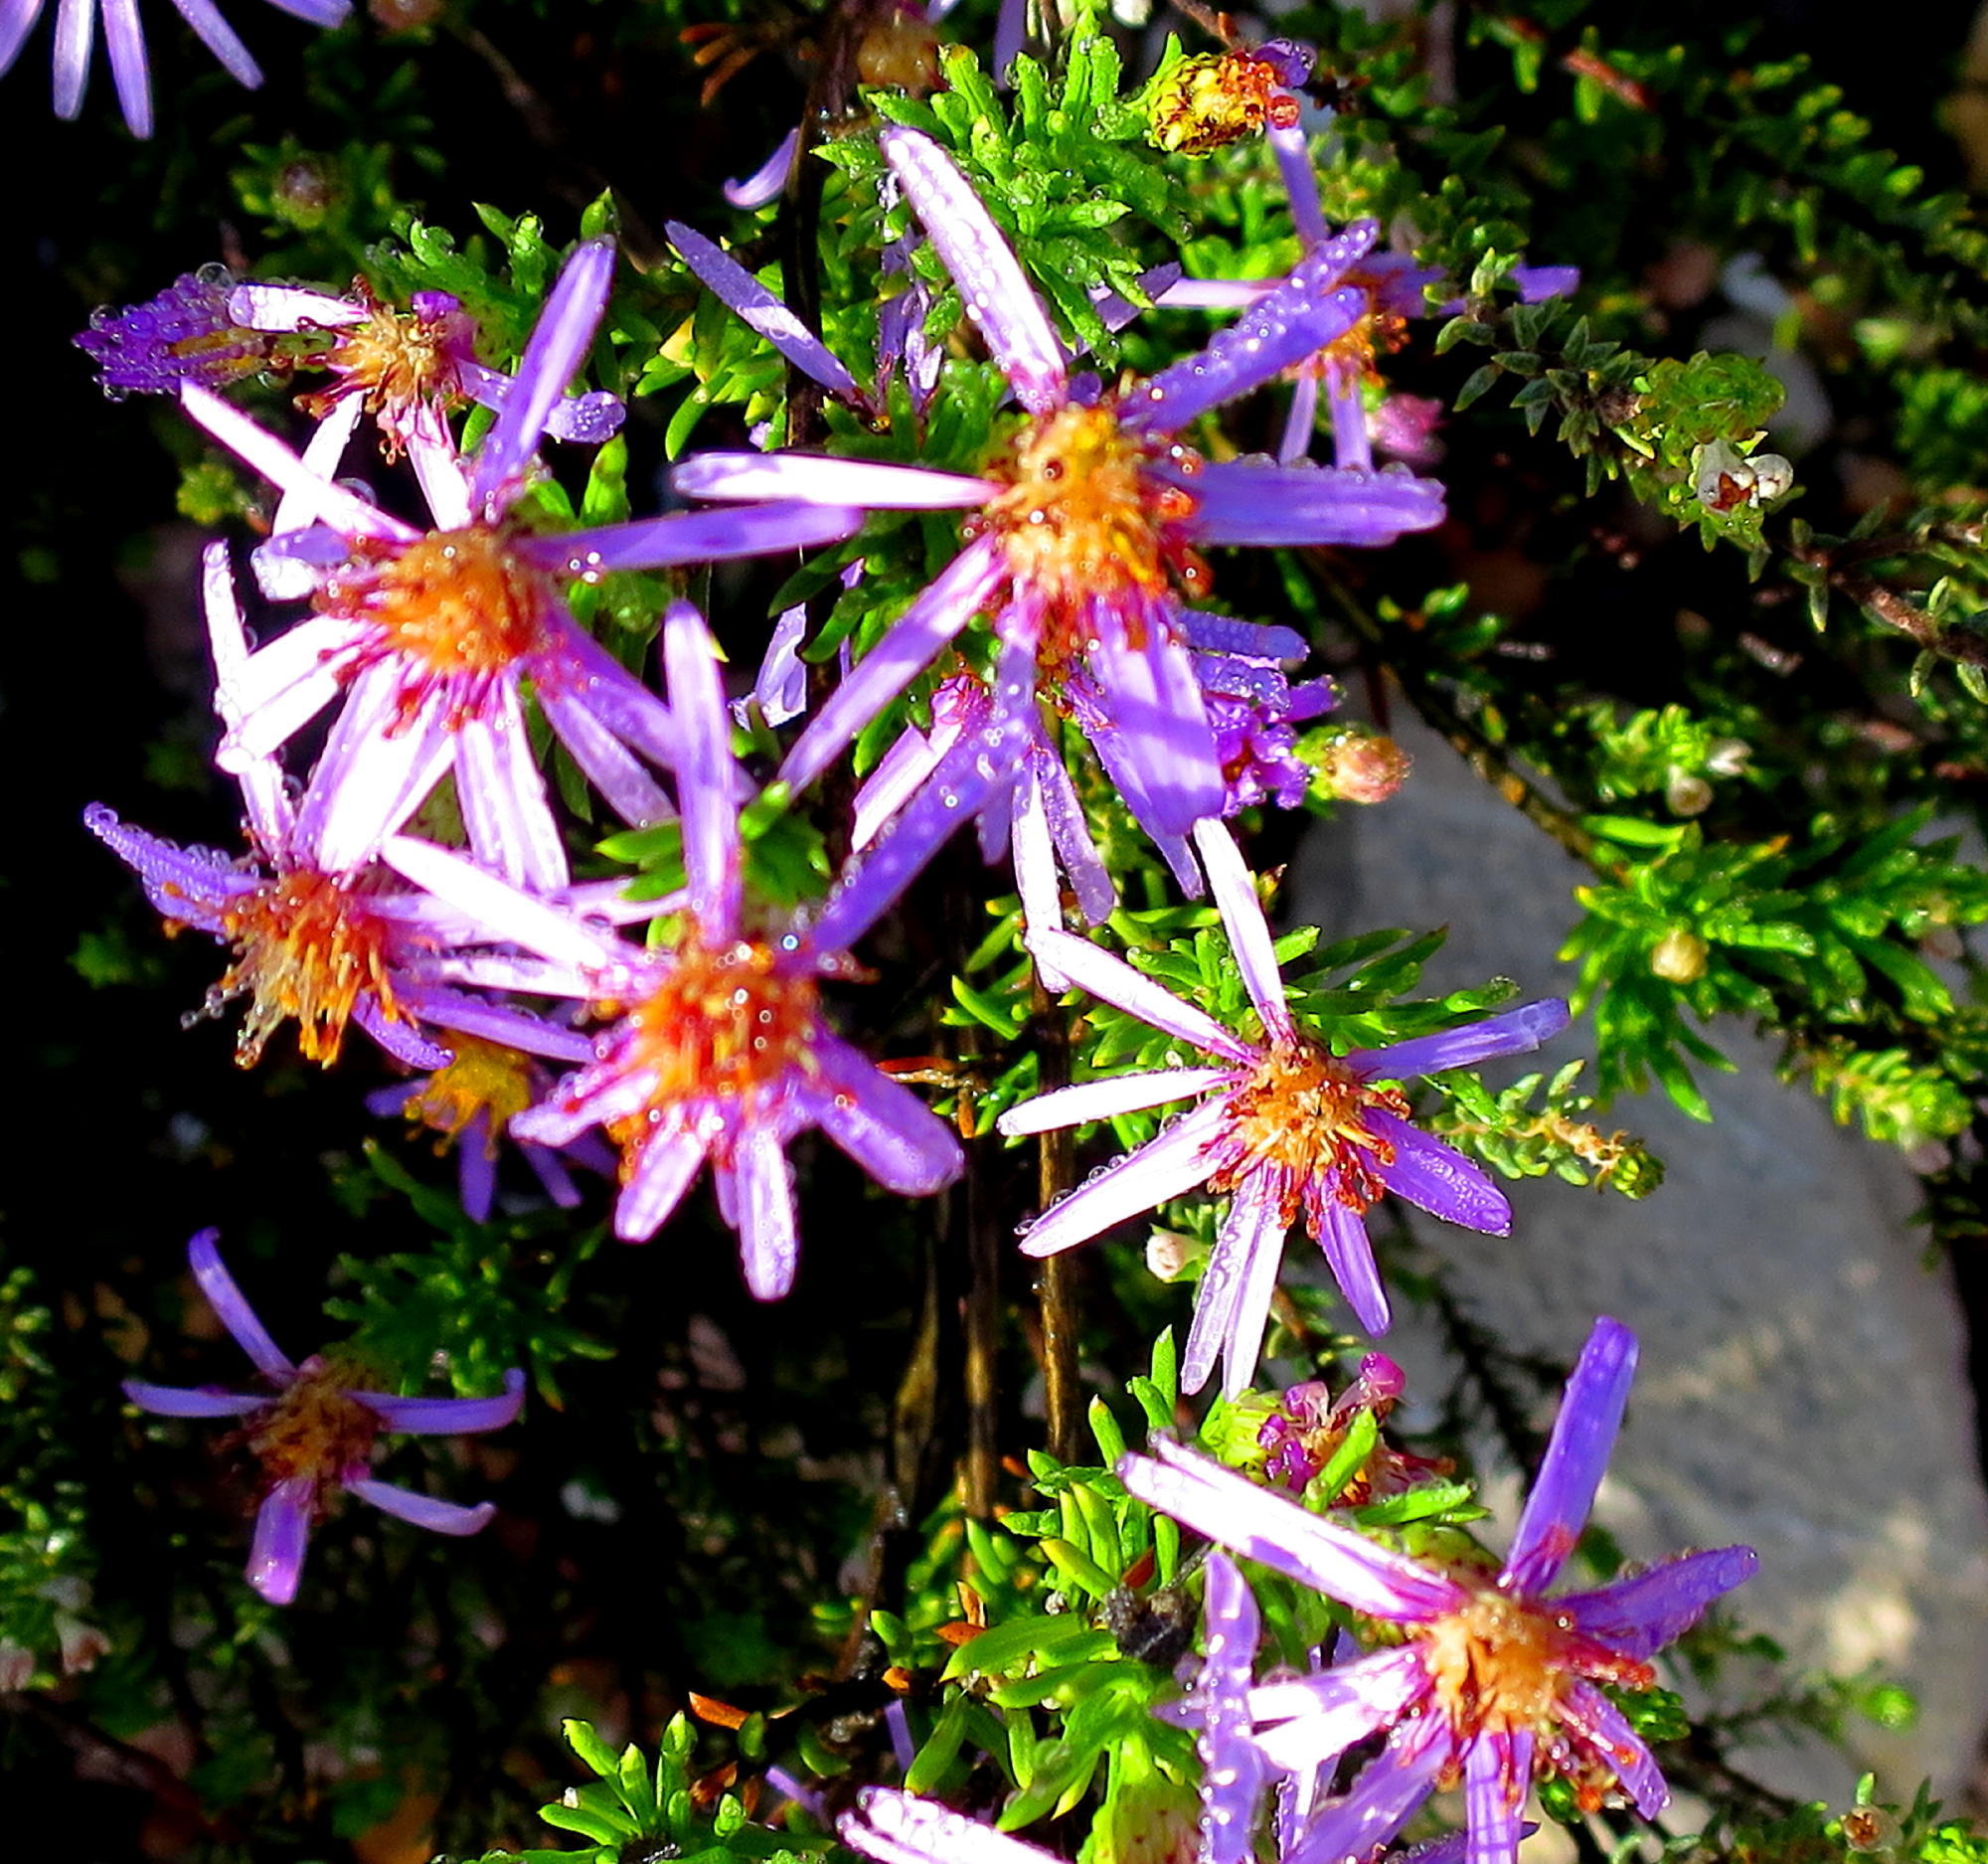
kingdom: Plantae
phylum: Tracheophyta
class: Magnoliopsida
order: Asterales
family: Asteraceae
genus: Felicia
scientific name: Felicia filifolia
